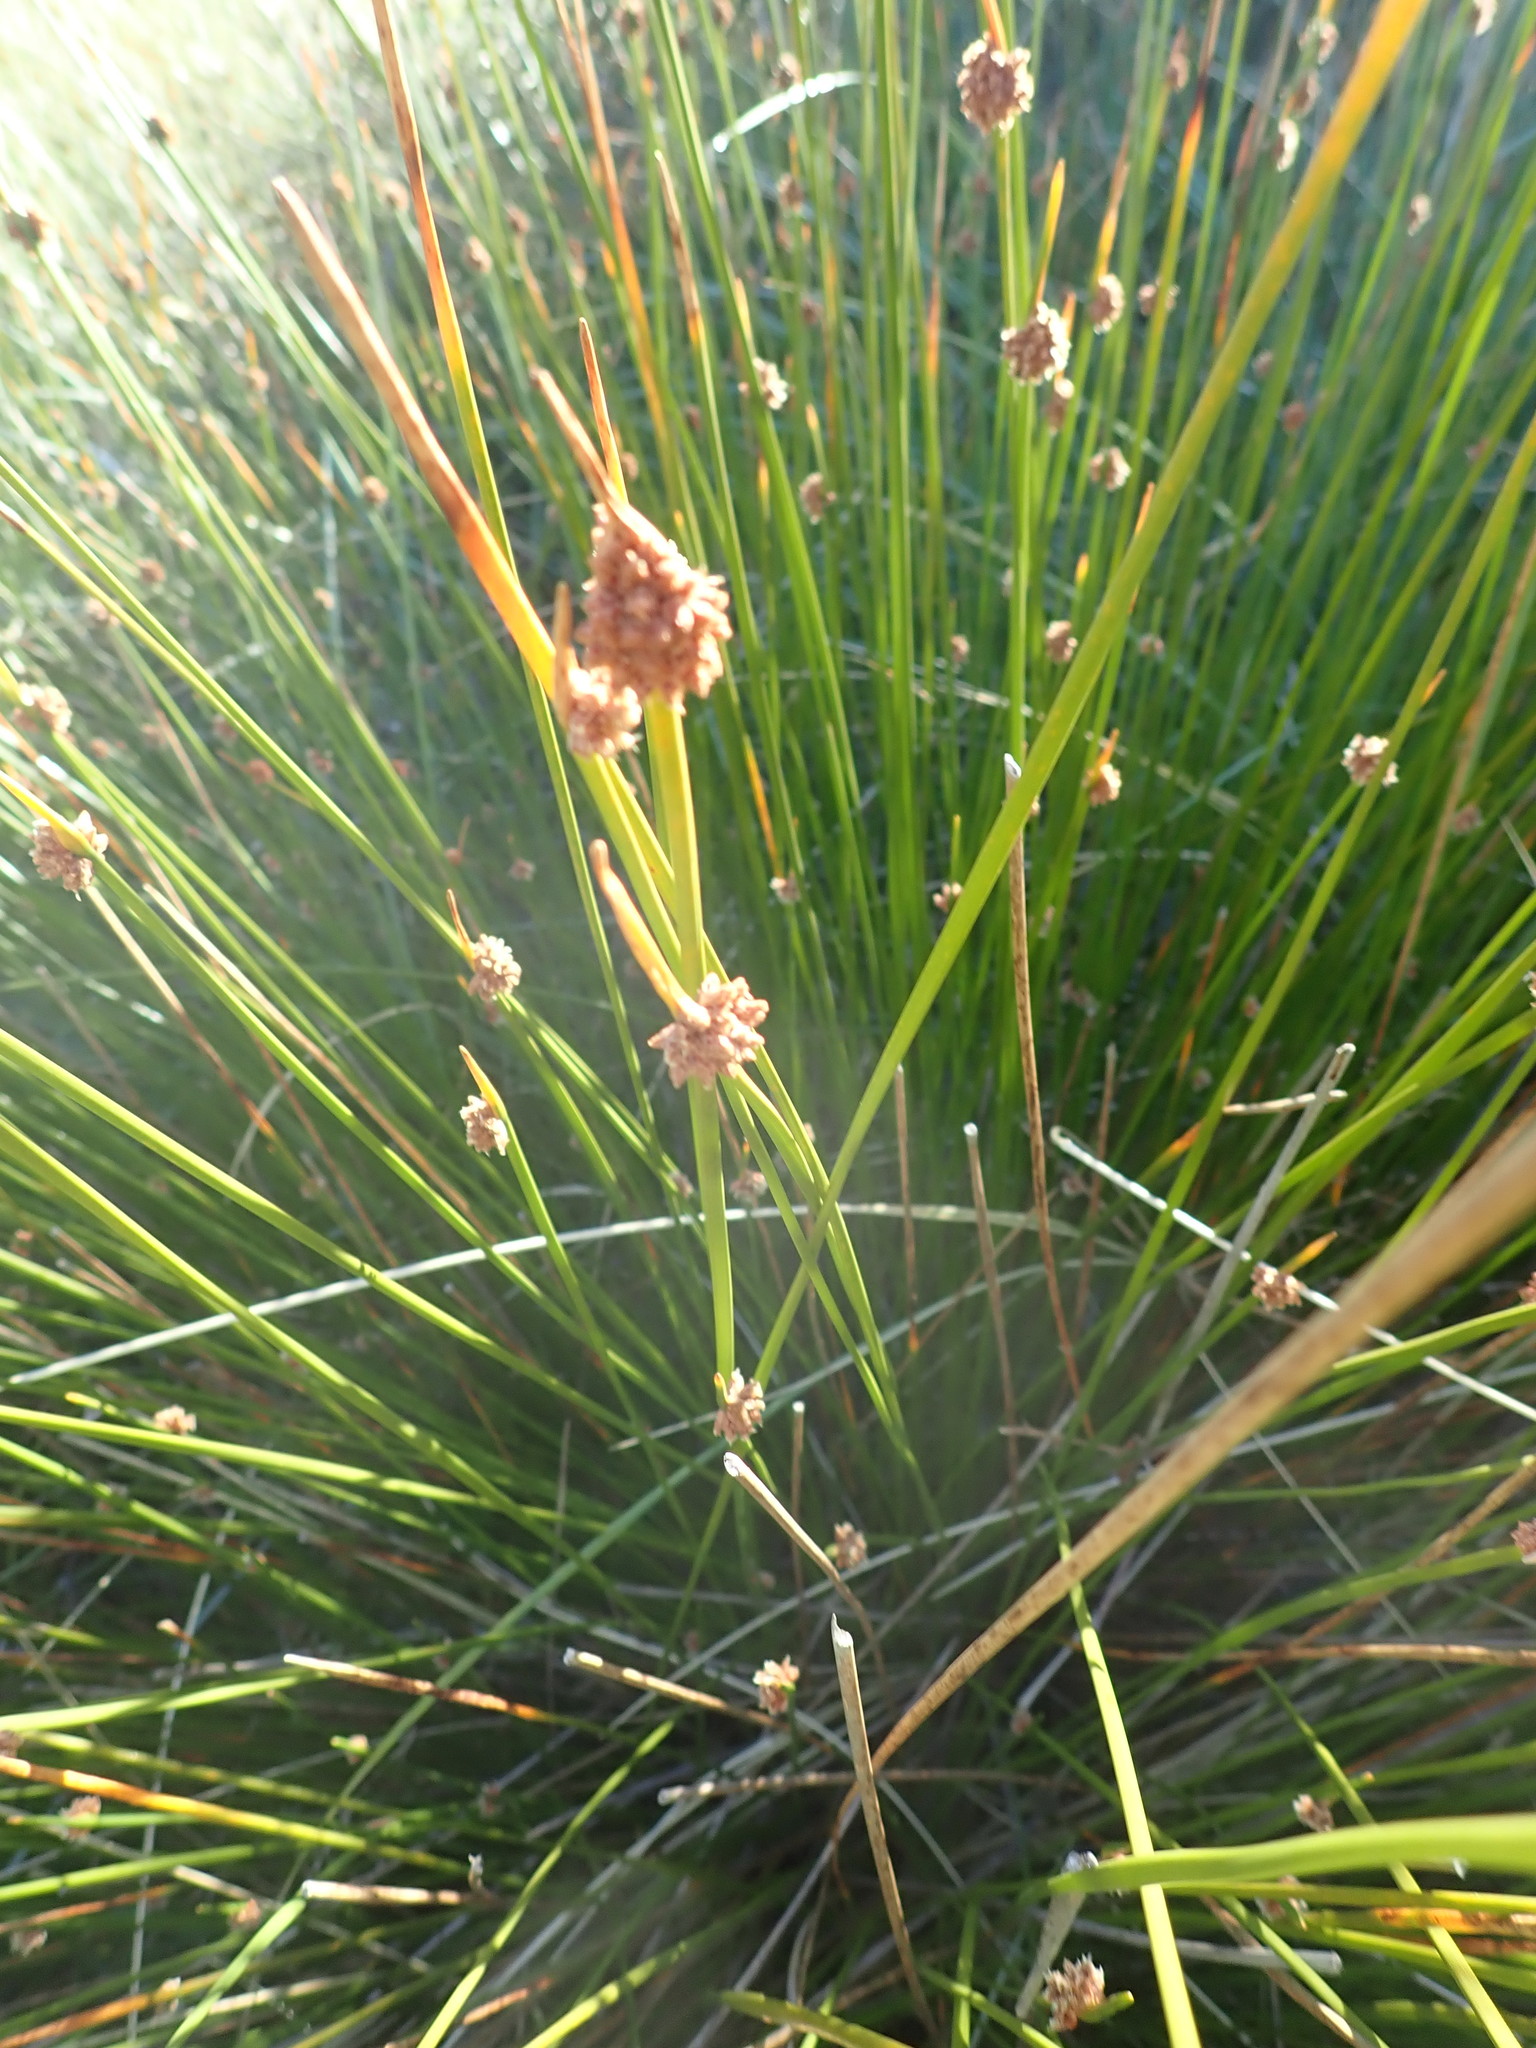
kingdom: Plantae
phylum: Tracheophyta
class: Liliopsida
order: Poales
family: Cyperaceae
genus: Ficinia
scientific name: Ficinia nodosa
